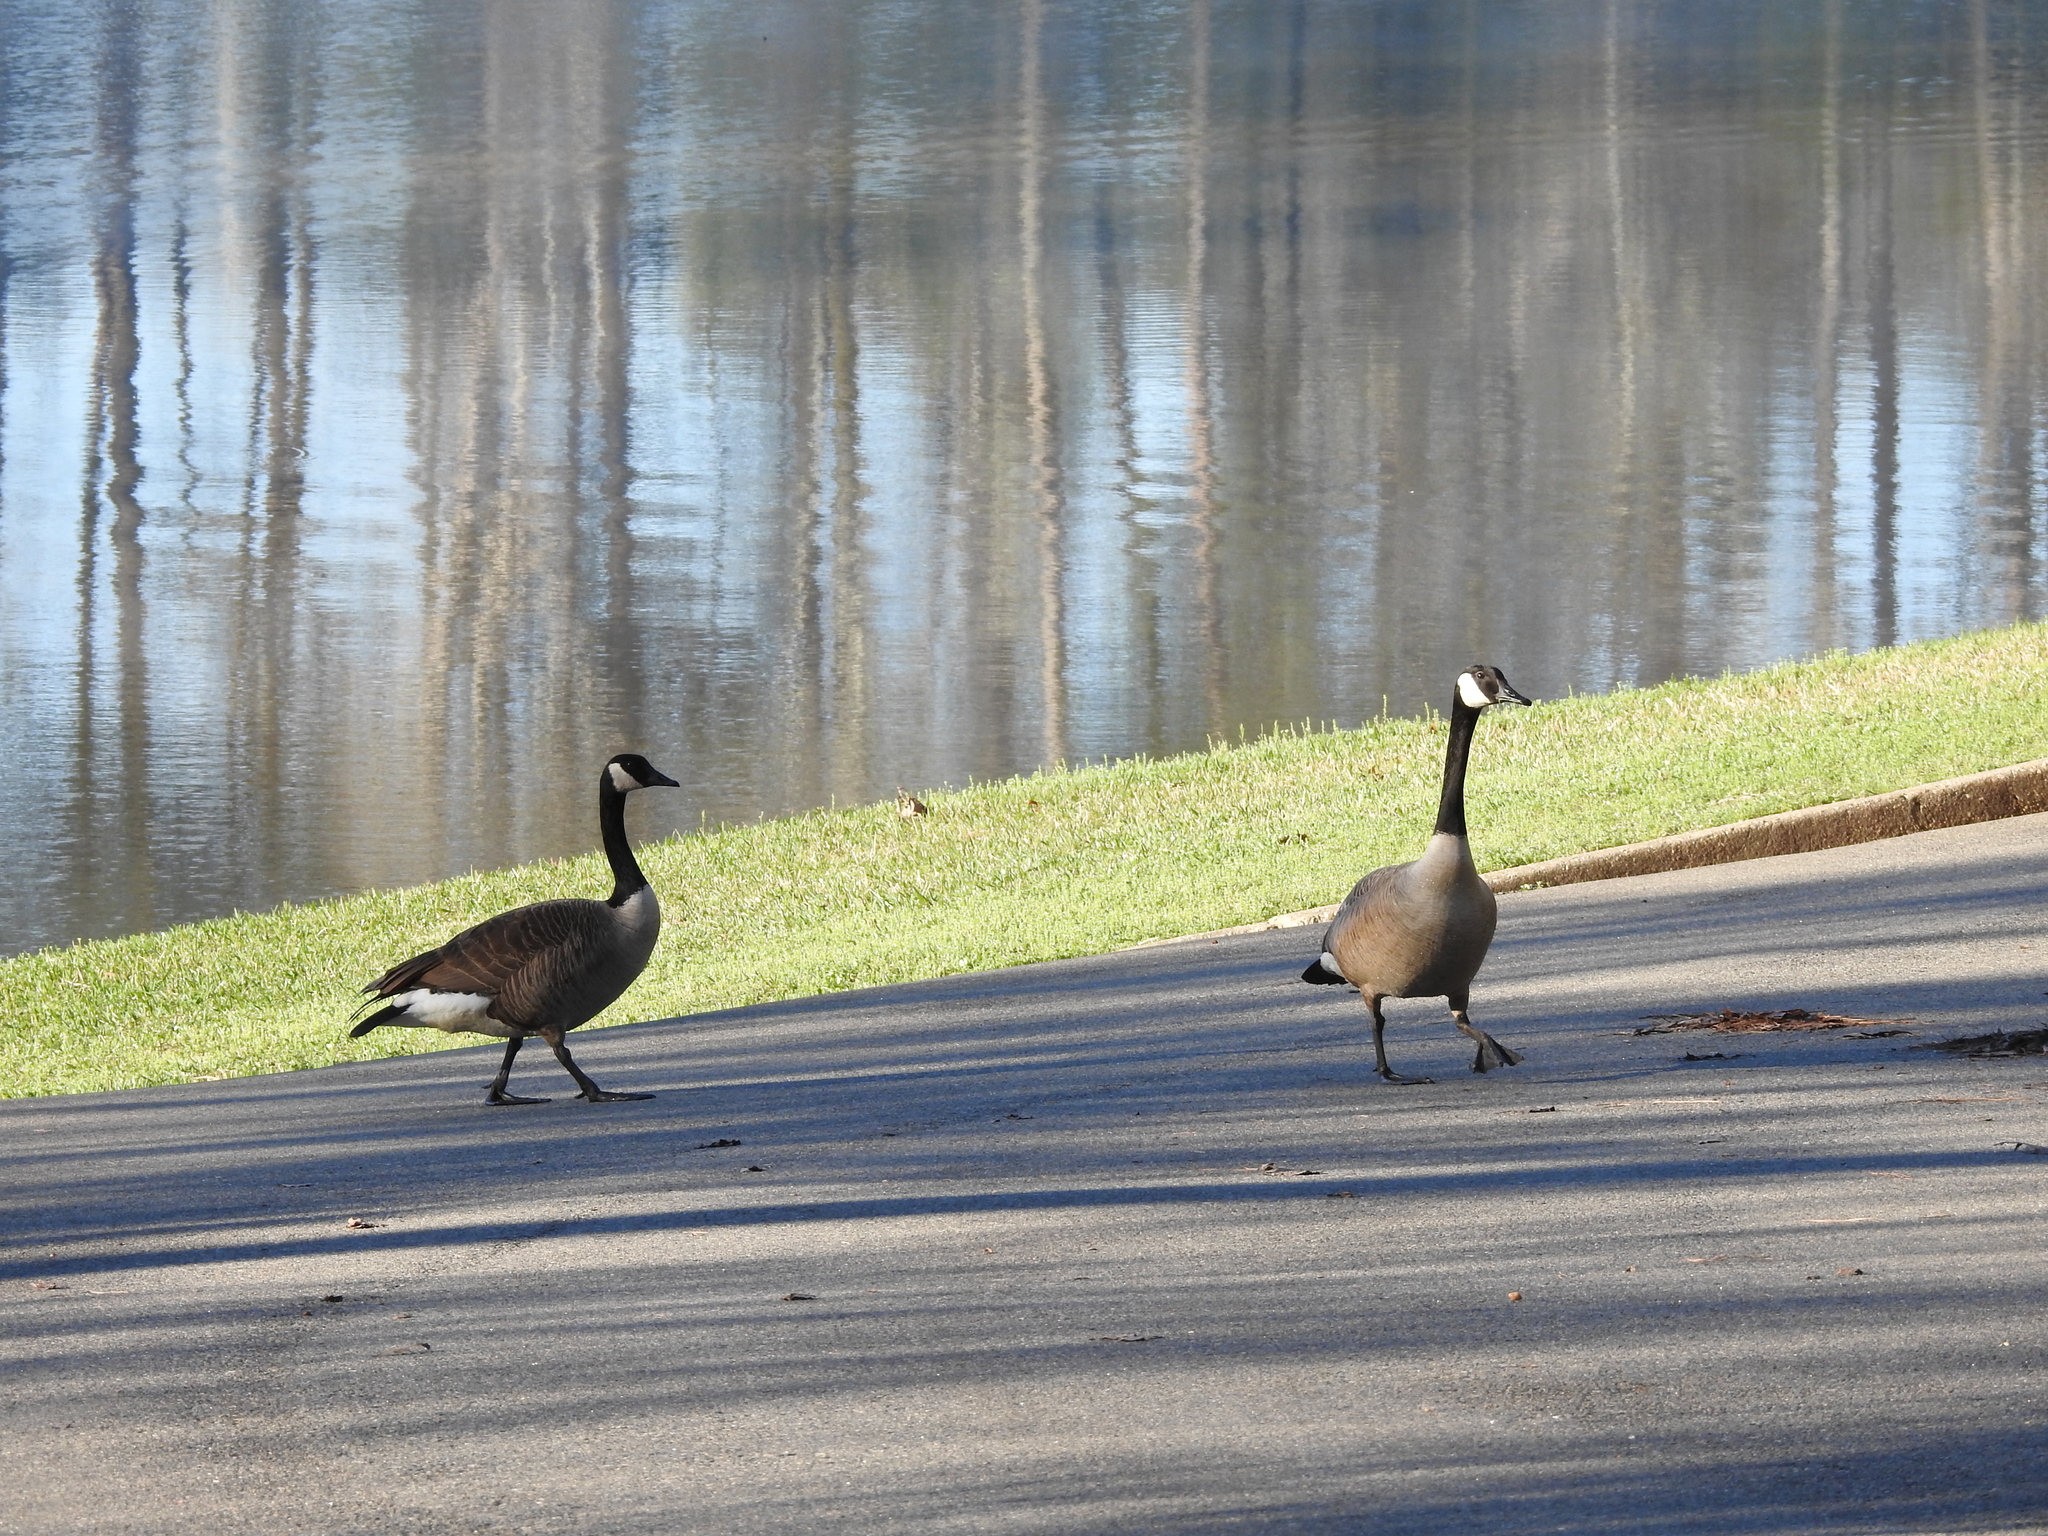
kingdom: Animalia
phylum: Chordata
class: Aves
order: Anseriformes
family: Anatidae
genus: Branta
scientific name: Branta canadensis
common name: Canada goose
